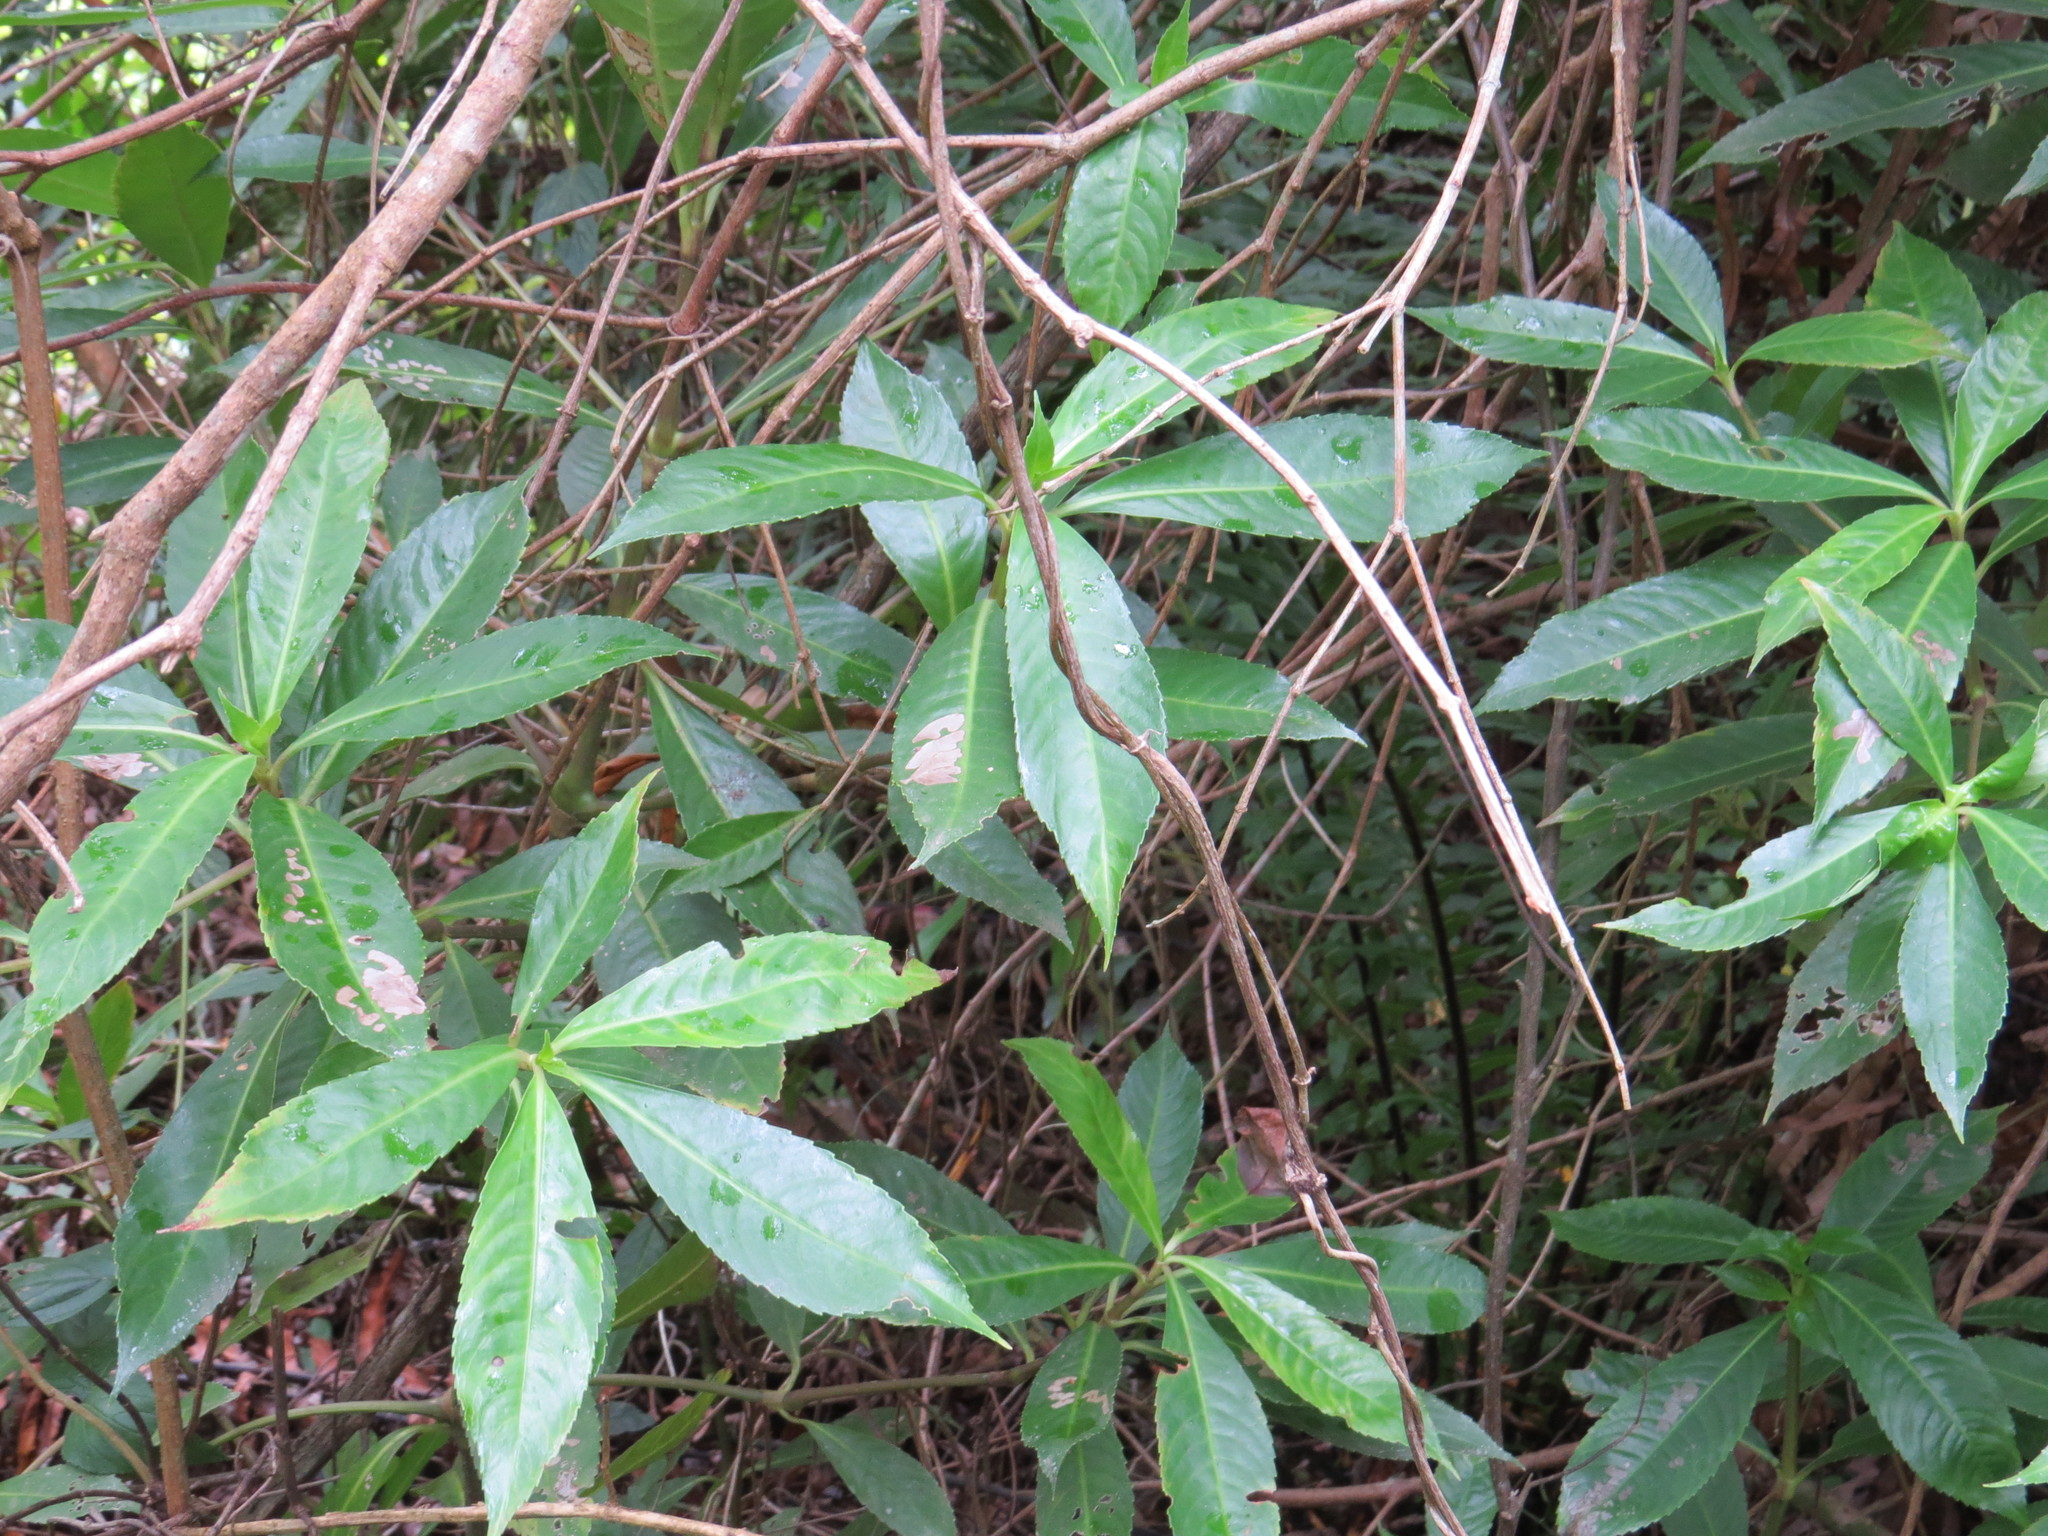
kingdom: Plantae
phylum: Tracheophyta
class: Magnoliopsida
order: Chloranthales
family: Chloranthaceae
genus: Hedyosmum
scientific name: Hedyosmum brasiliense
